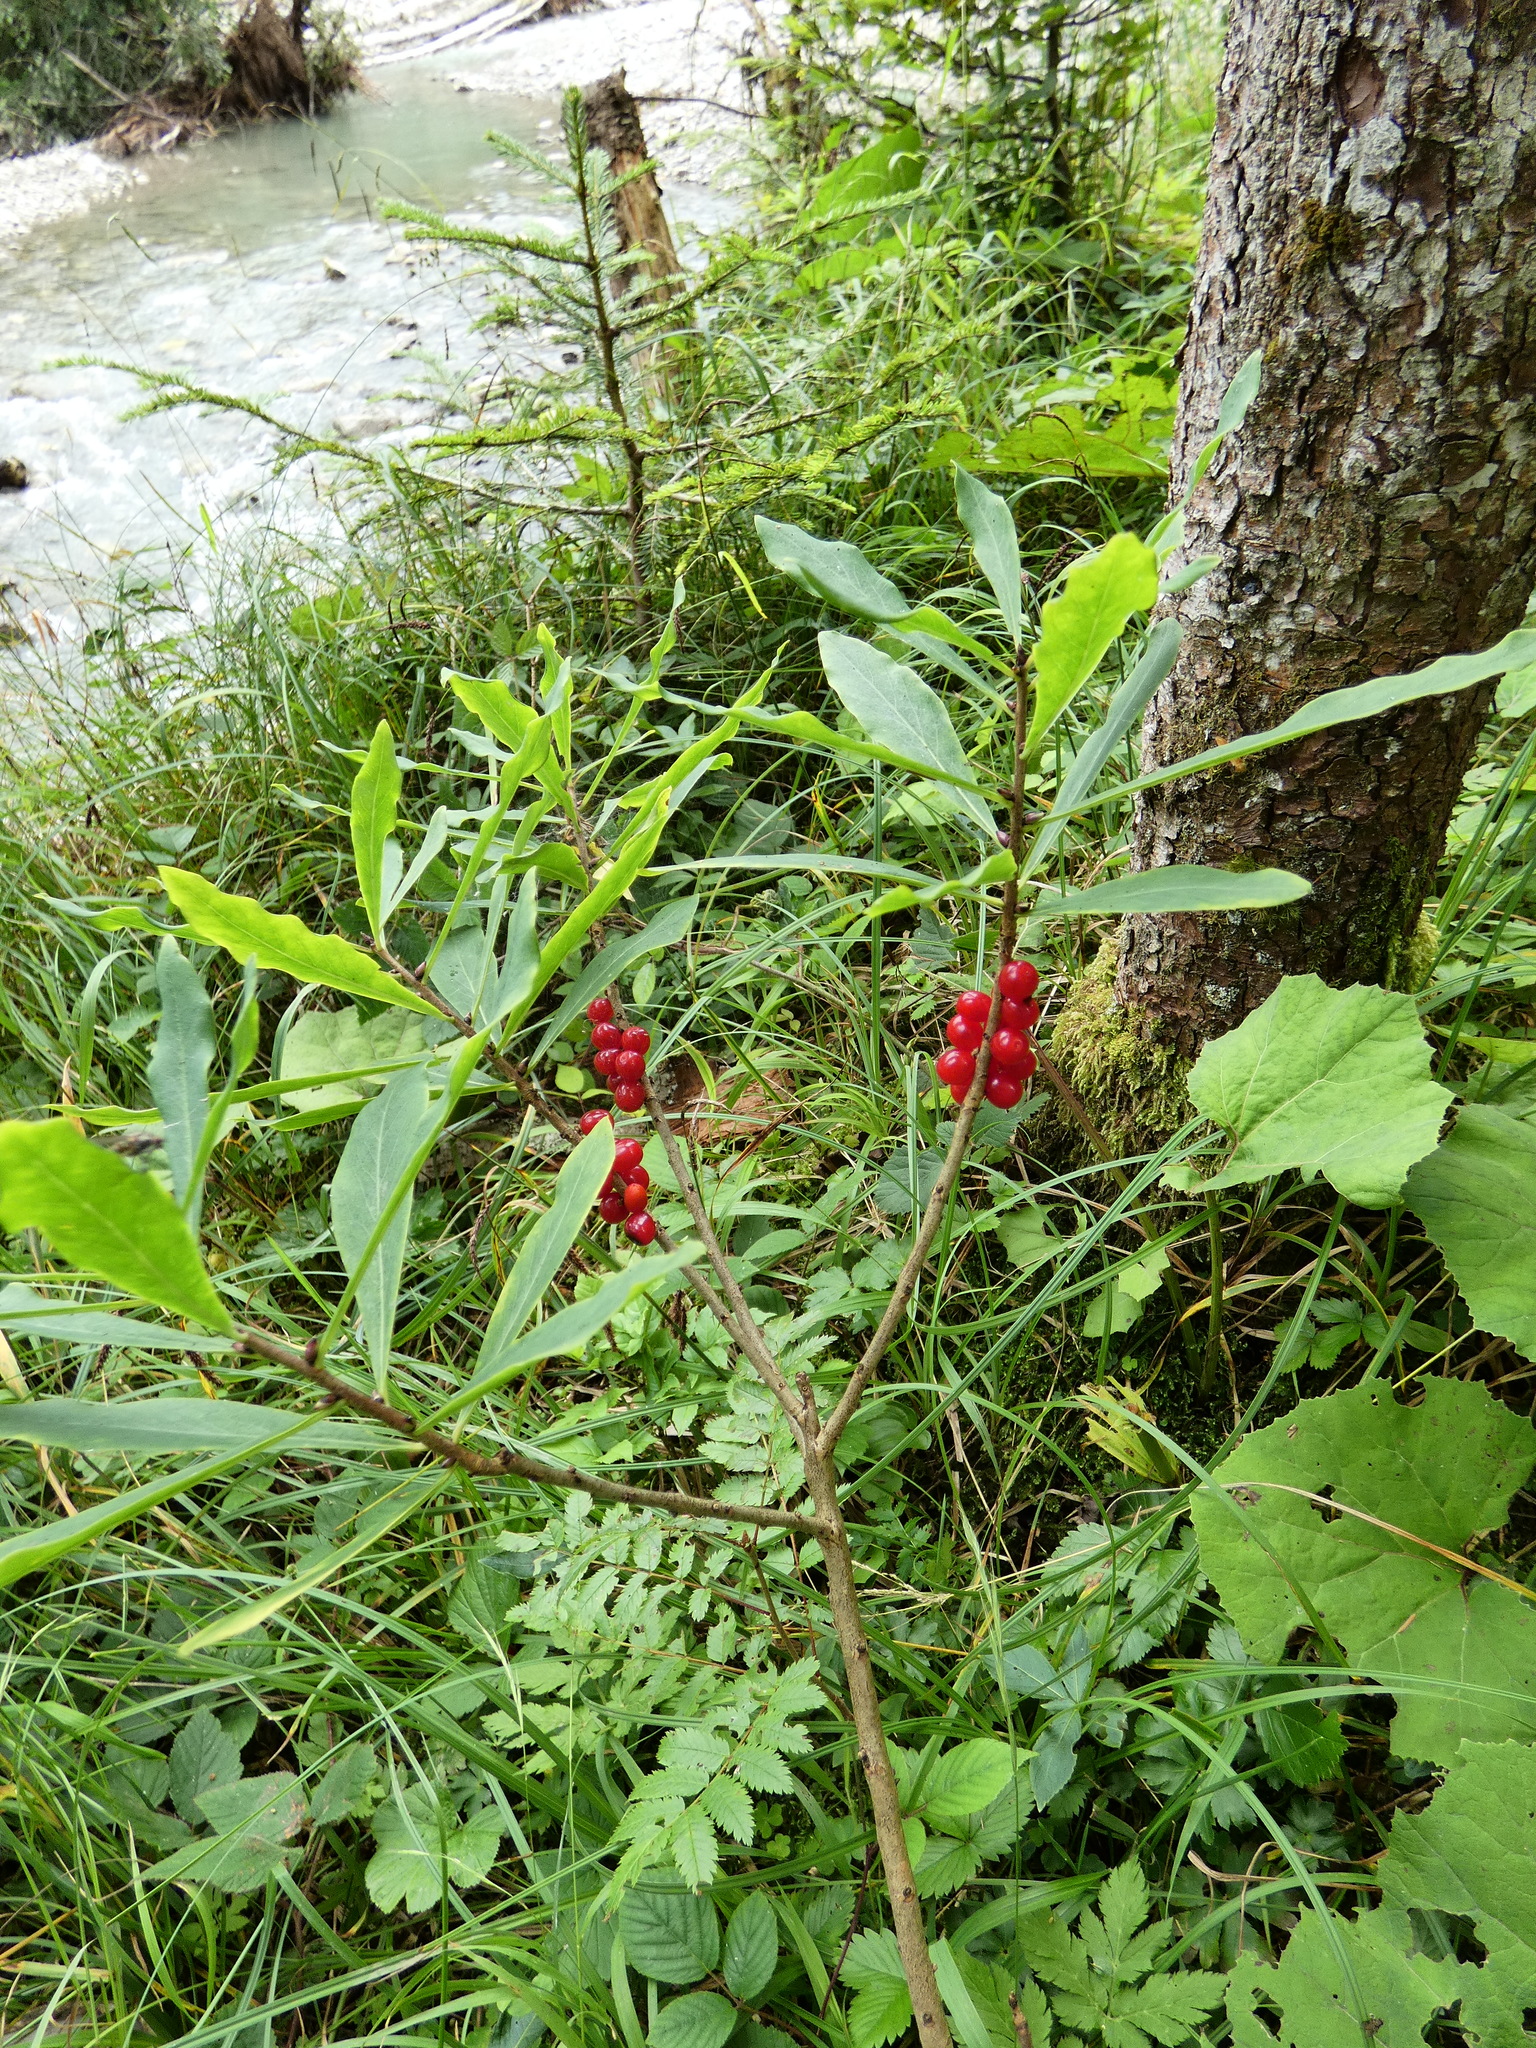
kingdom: Plantae
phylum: Tracheophyta
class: Magnoliopsida
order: Malvales
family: Thymelaeaceae
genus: Daphne
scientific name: Daphne mezereum
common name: Mezereon
